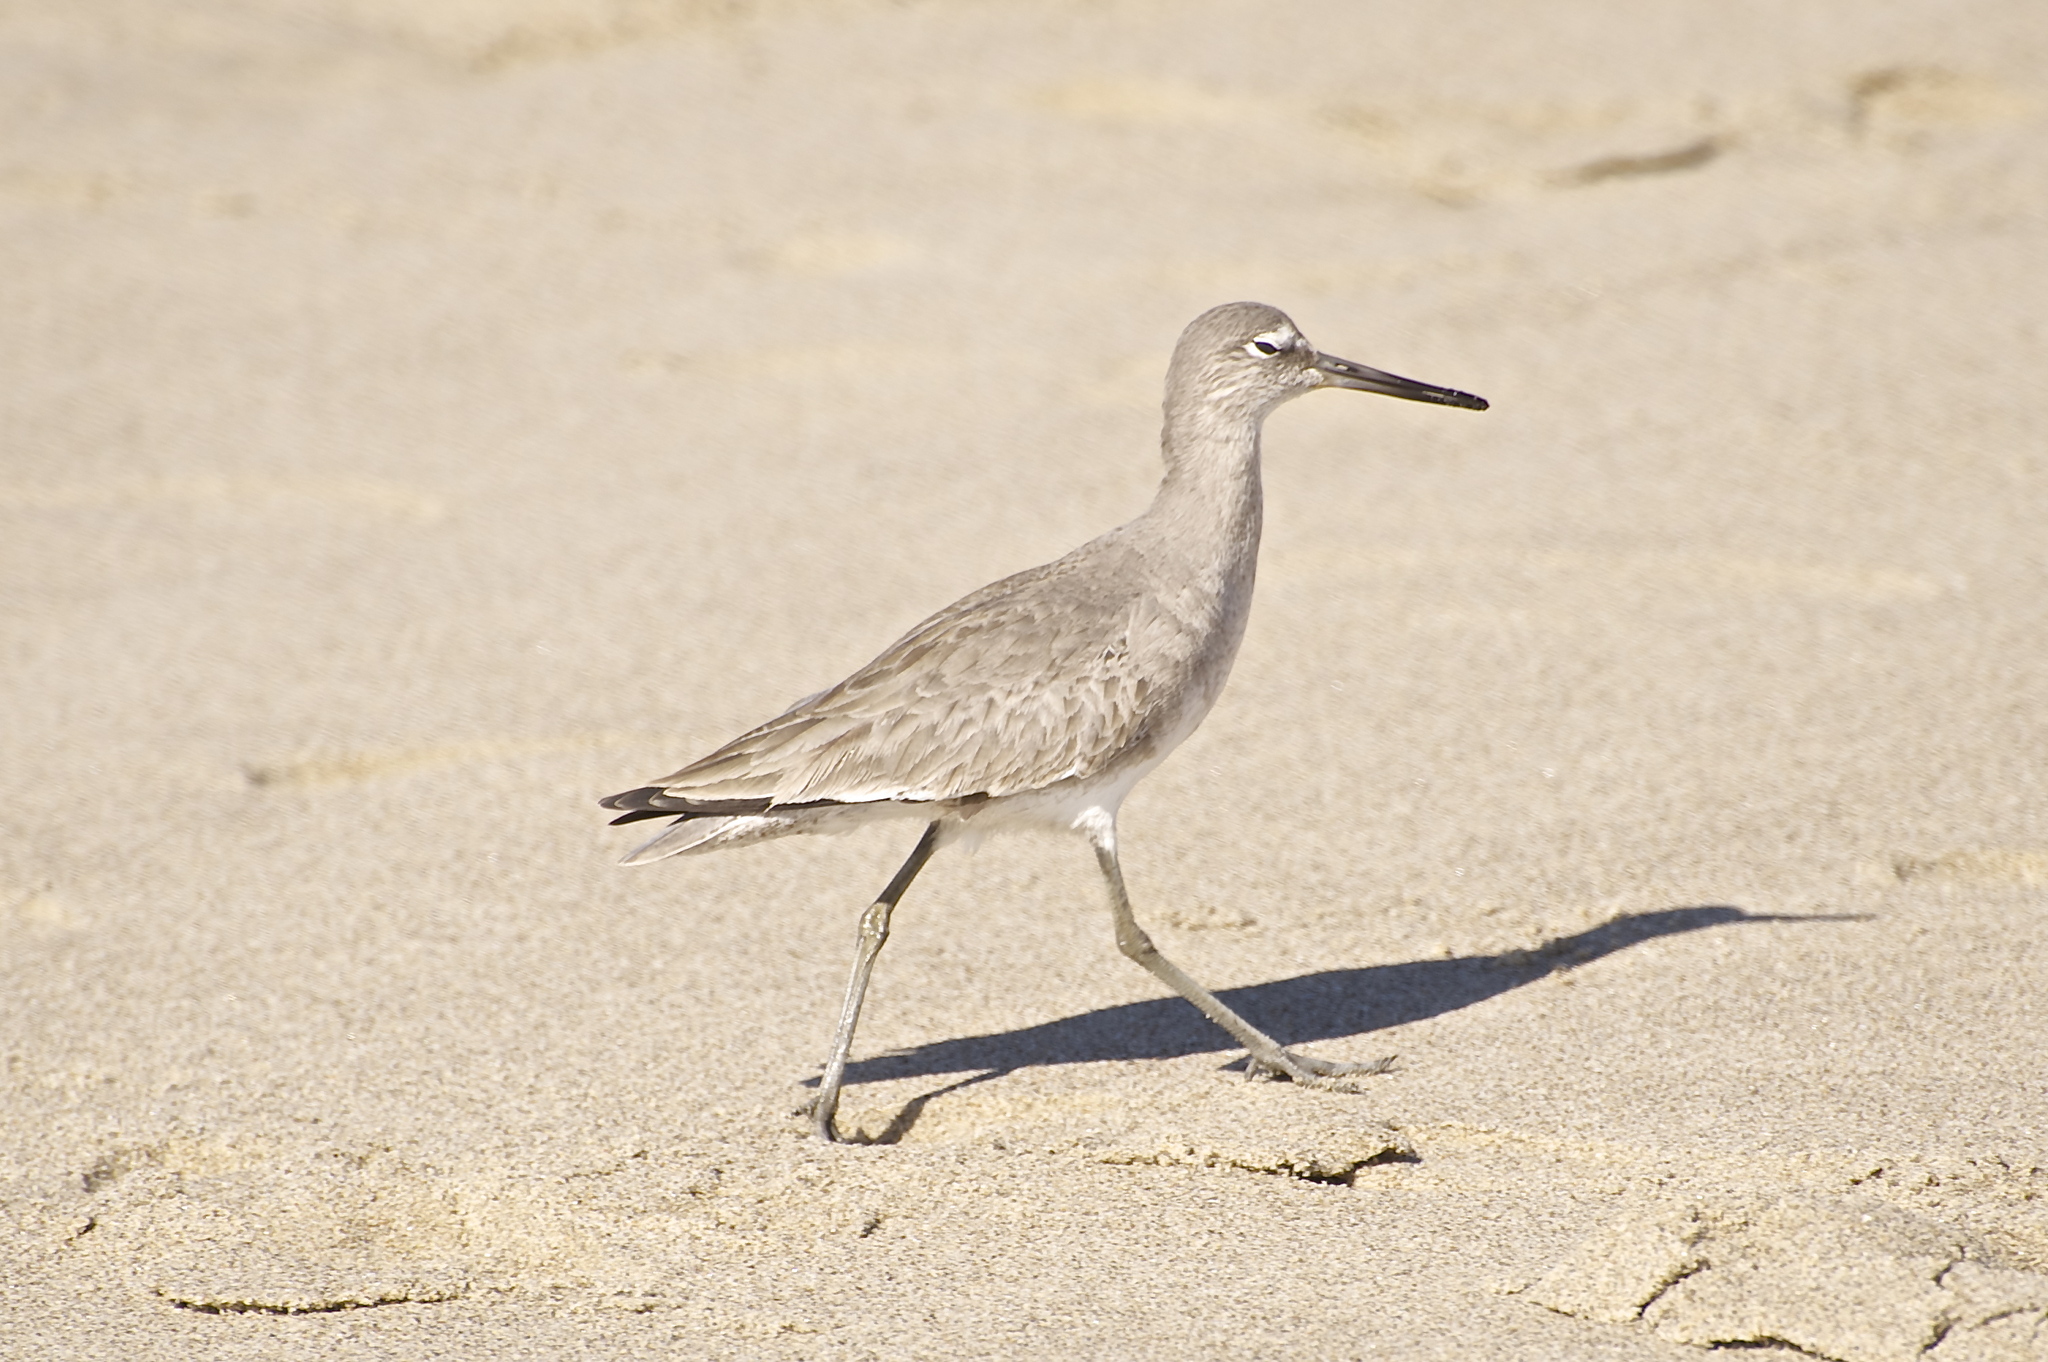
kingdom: Animalia
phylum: Chordata
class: Aves
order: Charadriiformes
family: Scolopacidae
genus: Tringa
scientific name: Tringa semipalmata
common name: Willet
